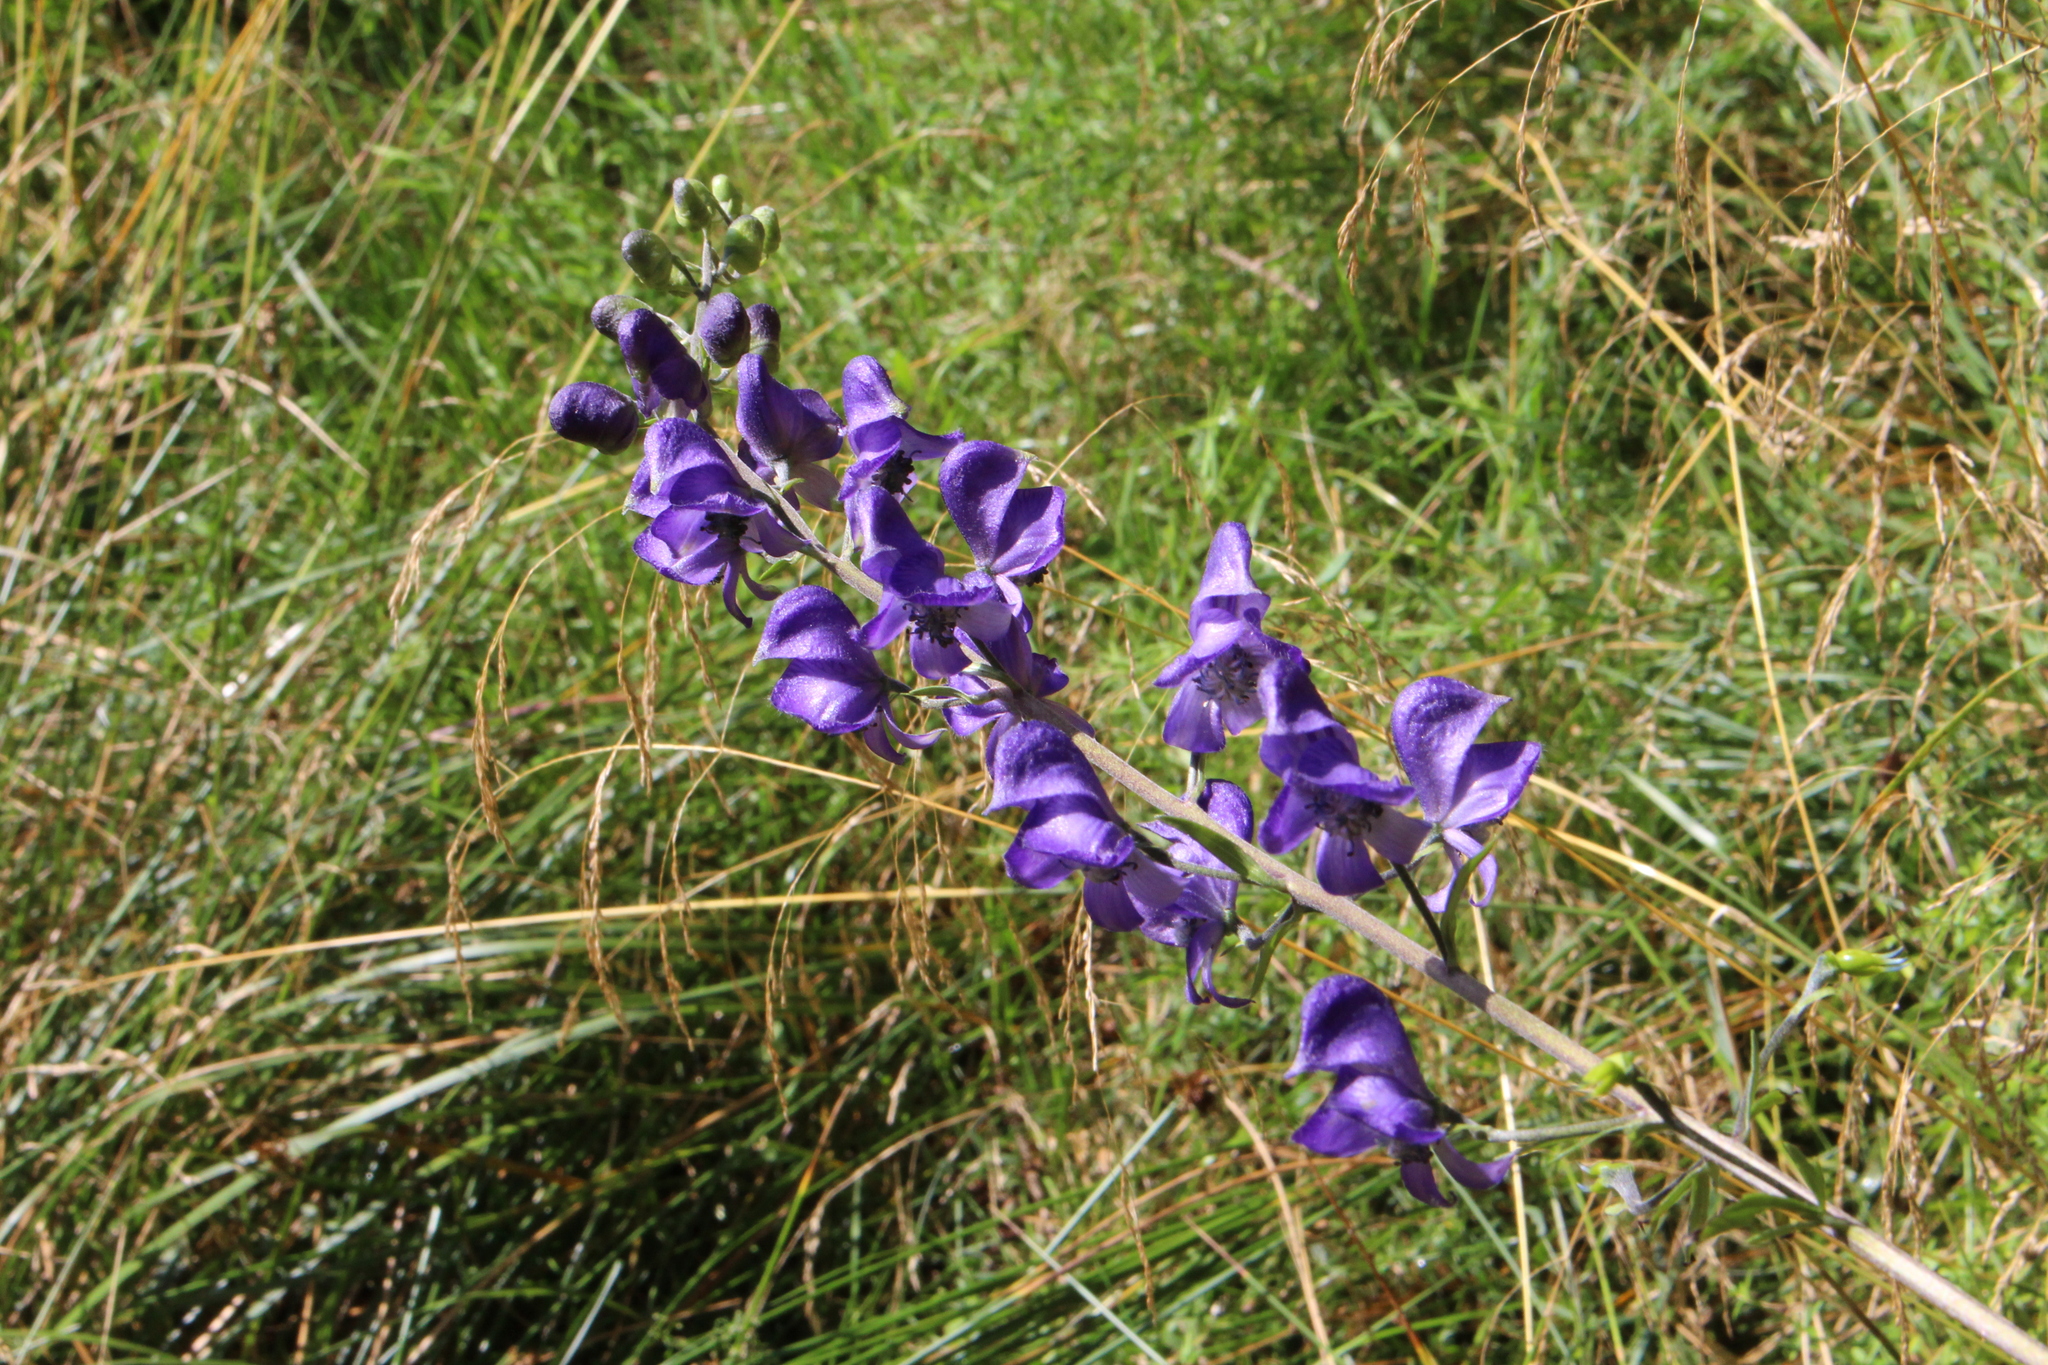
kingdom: Plantae
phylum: Tracheophyta
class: Magnoliopsida
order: Ranunculales
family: Ranunculaceae
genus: Aconitum
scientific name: Aconitum napellus
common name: Garden monkshood
